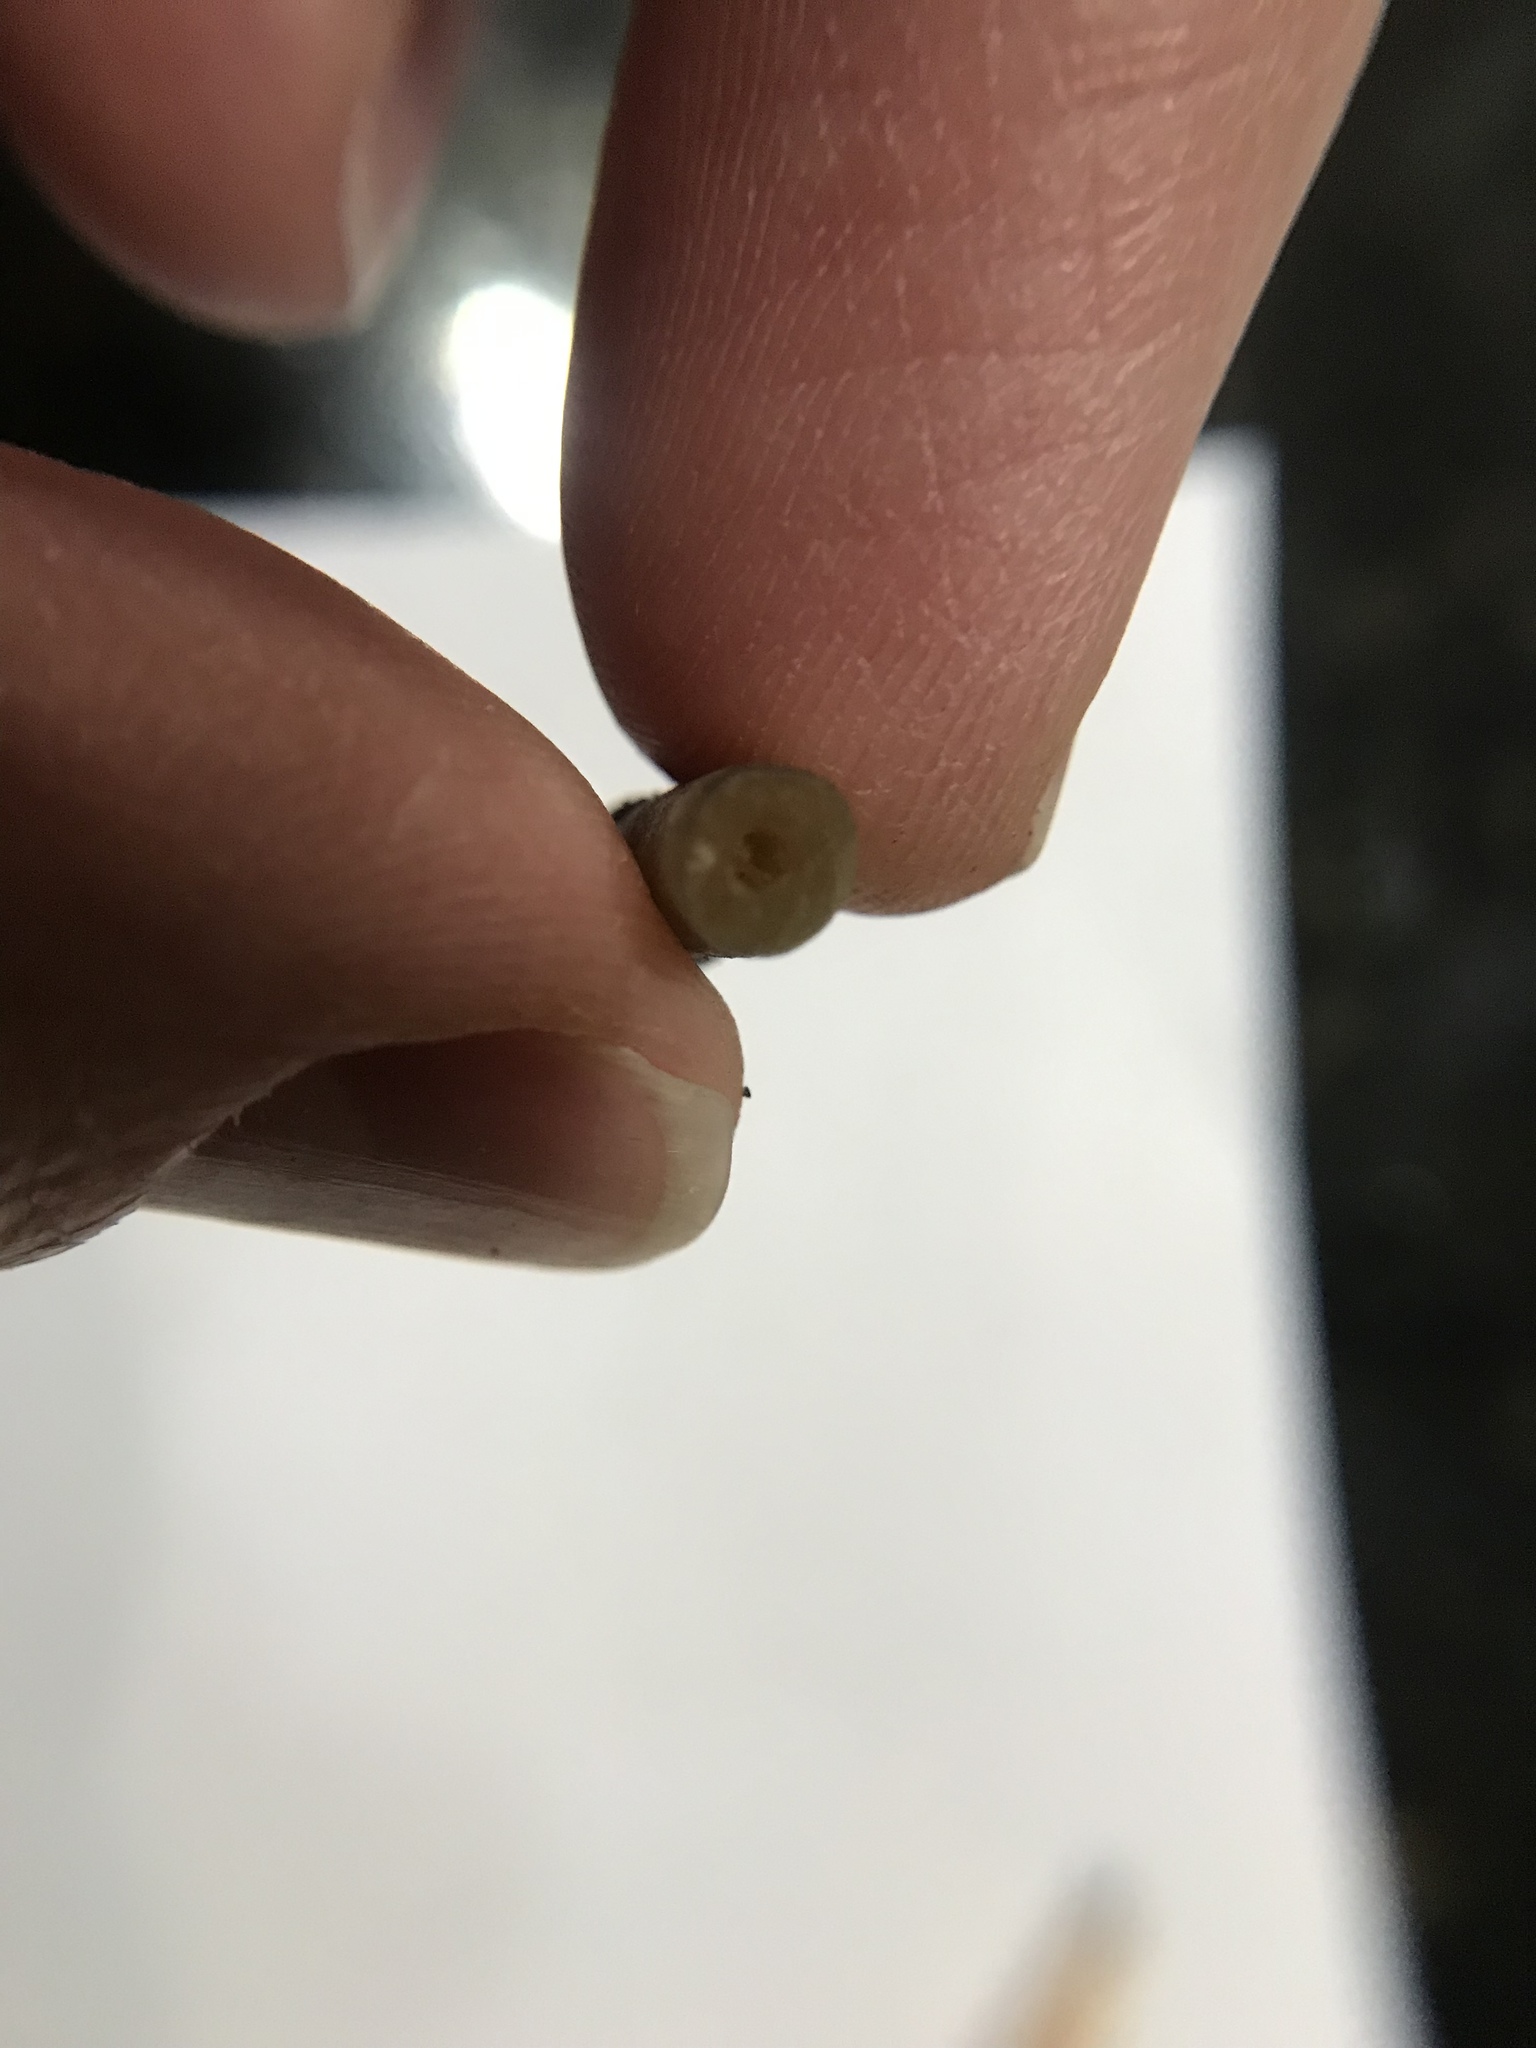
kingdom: Fungi
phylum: Basidiomycota
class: Agaricomycetes
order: Agaricales
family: Hymenogastraceae
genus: Psilocybe
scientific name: Psilocybe ovoideocystidiata
